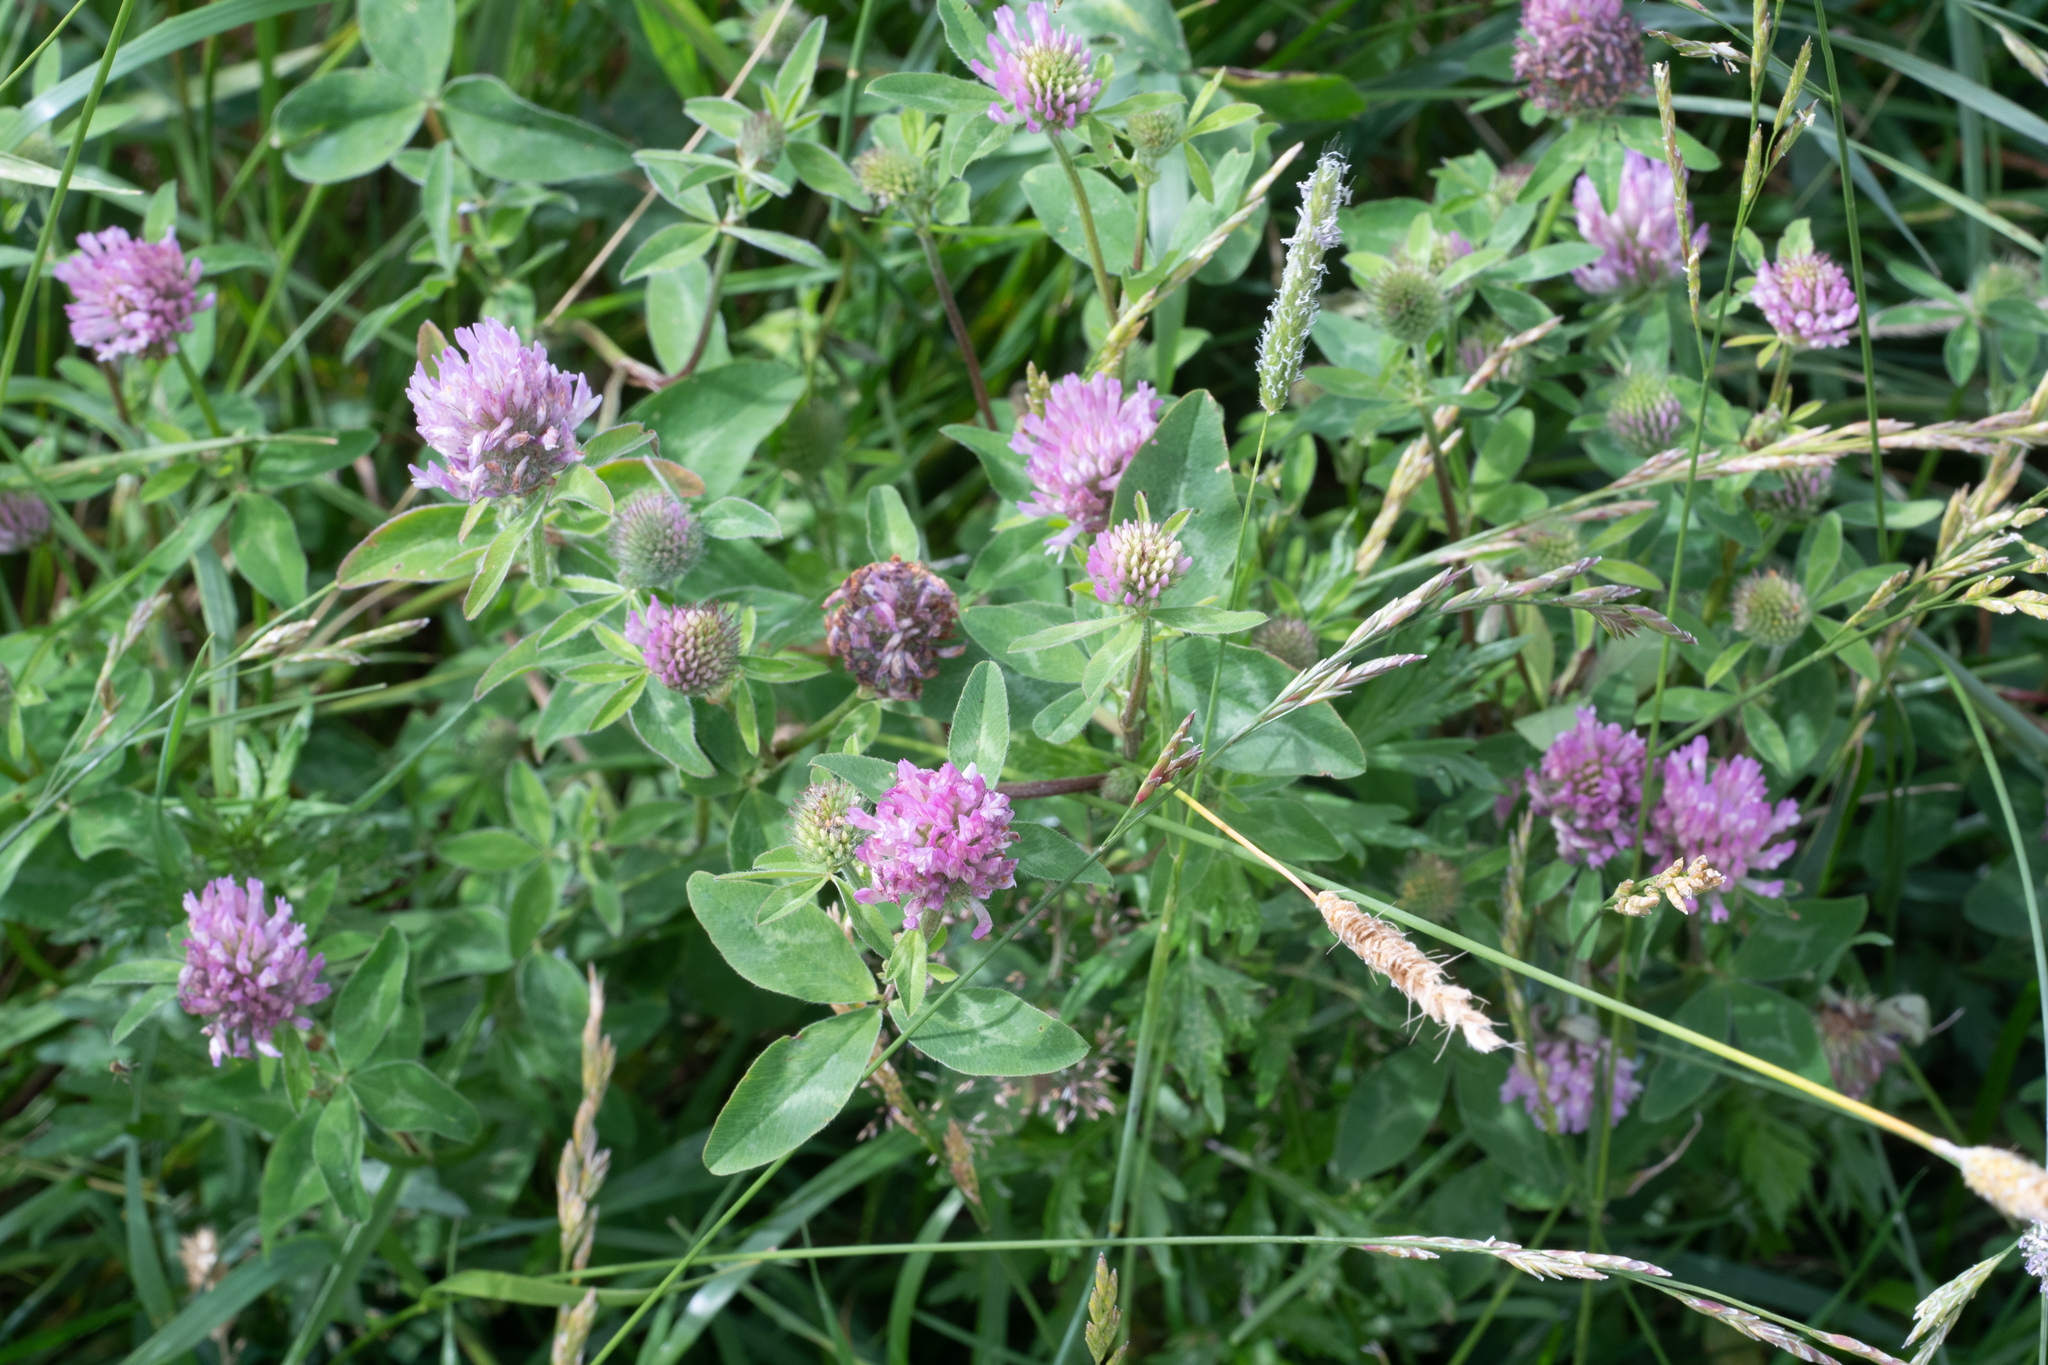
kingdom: Plantae
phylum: Tracheophyta
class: Magnoliopsida
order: Fabales
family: Fabaceae
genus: Trifolium
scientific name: Trifolium pratense
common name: Red clover
